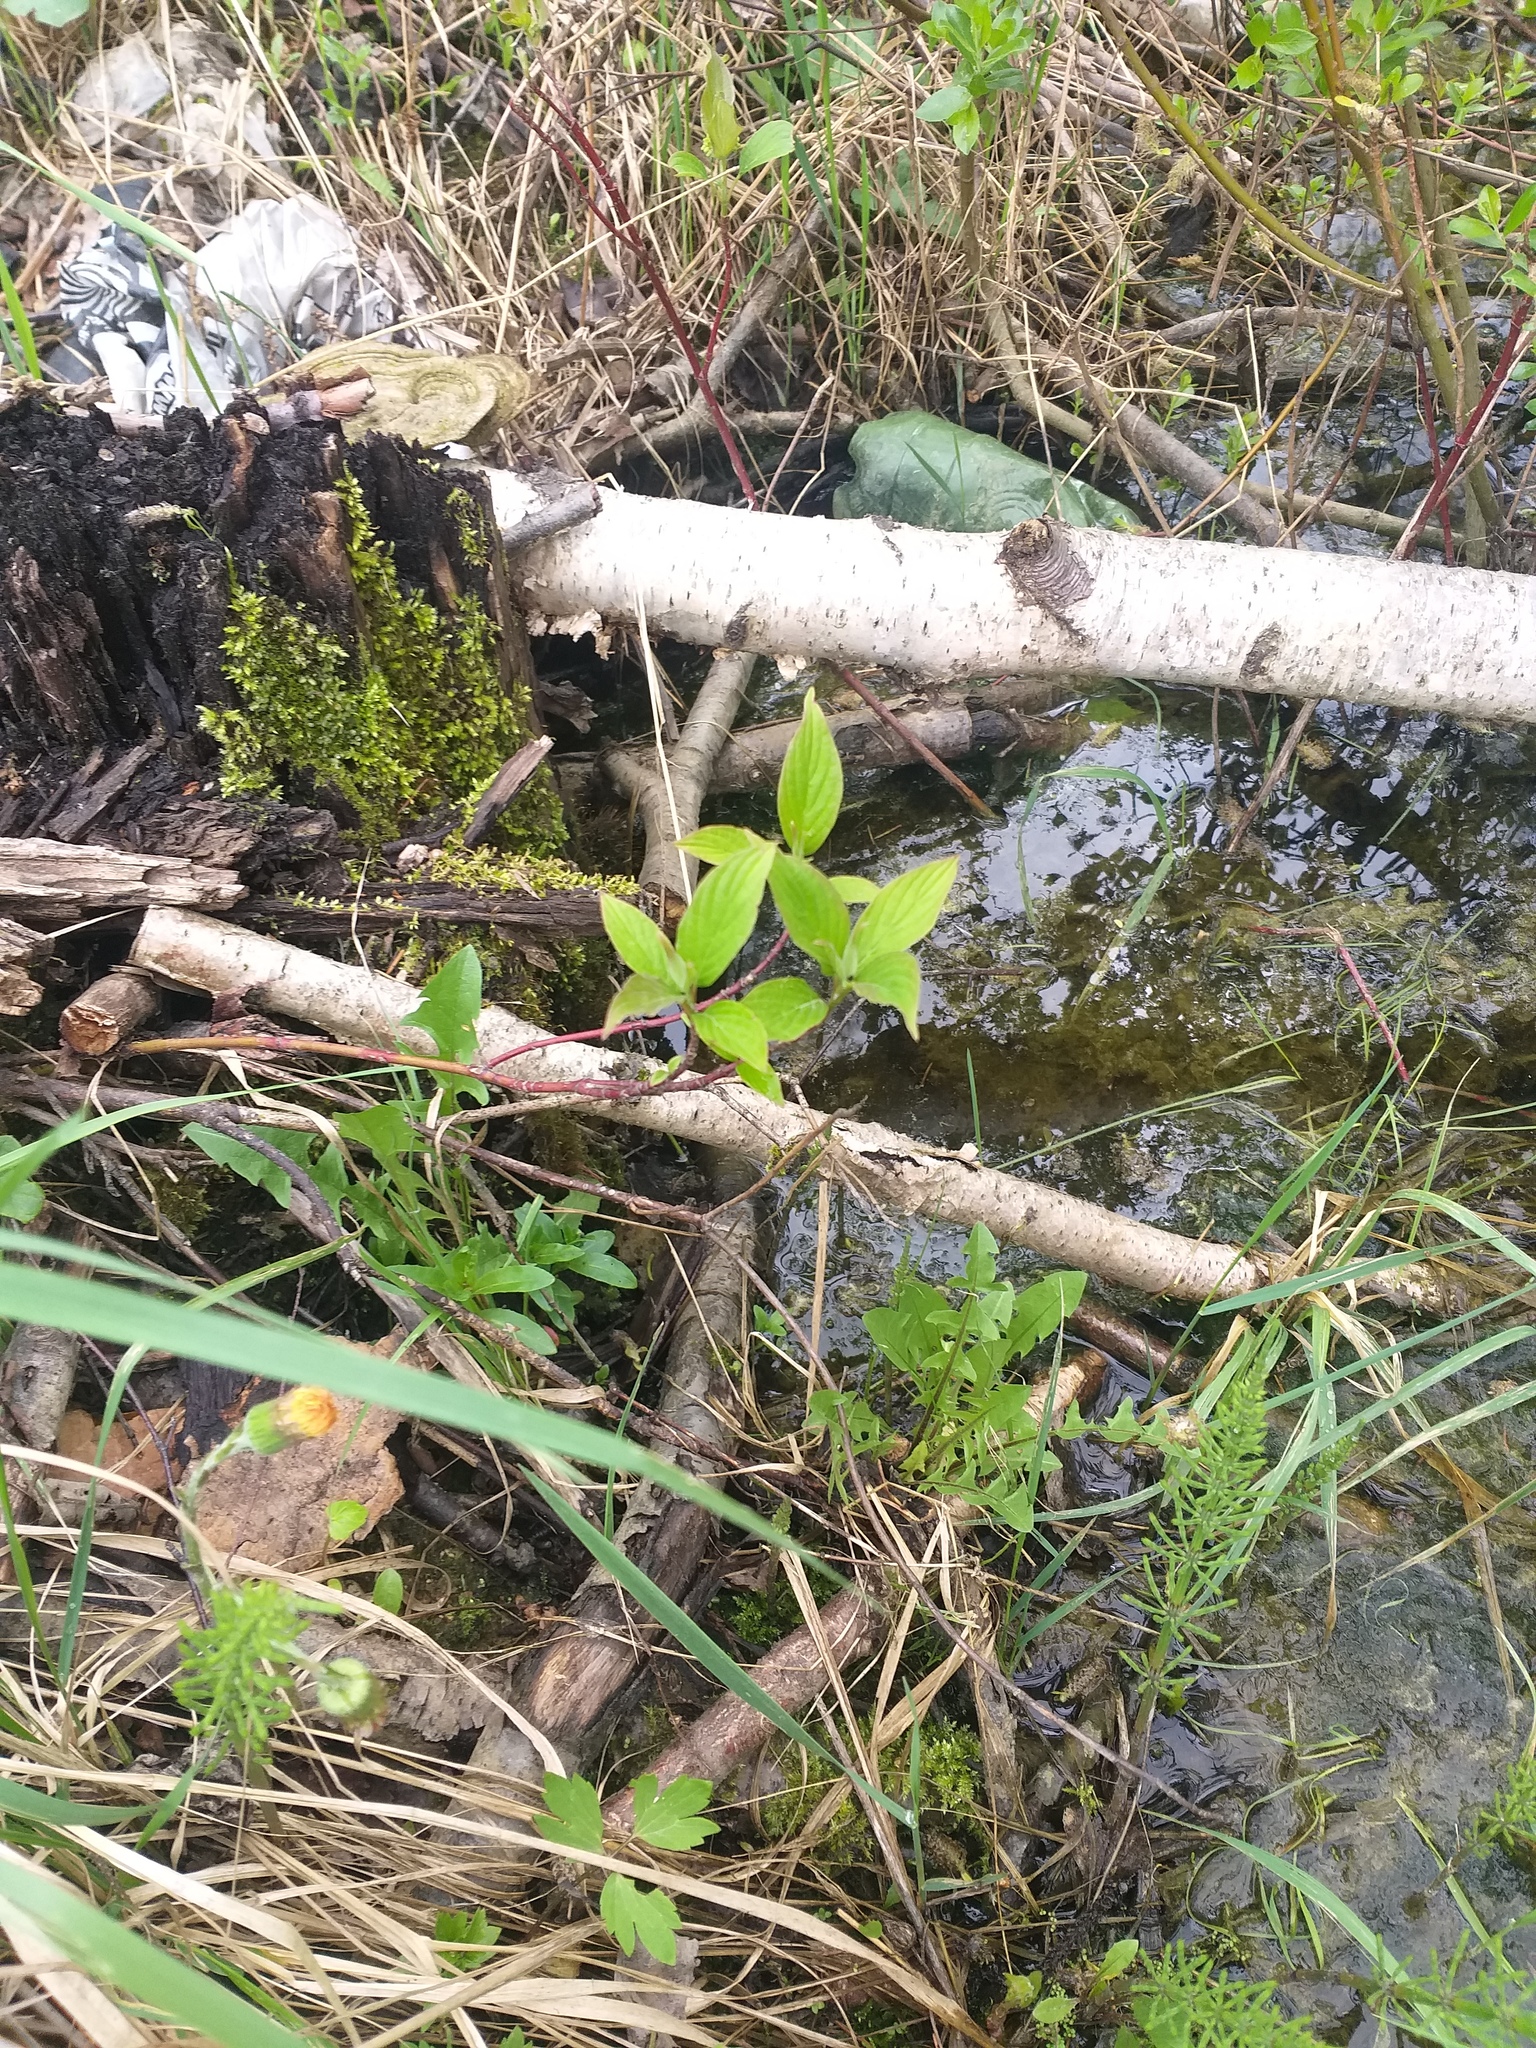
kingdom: Plantae
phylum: Tracheophyta
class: Magnoliopsida
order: Cornales
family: Cornaceae
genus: Cornus
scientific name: Cornus alba
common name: White dogwood
